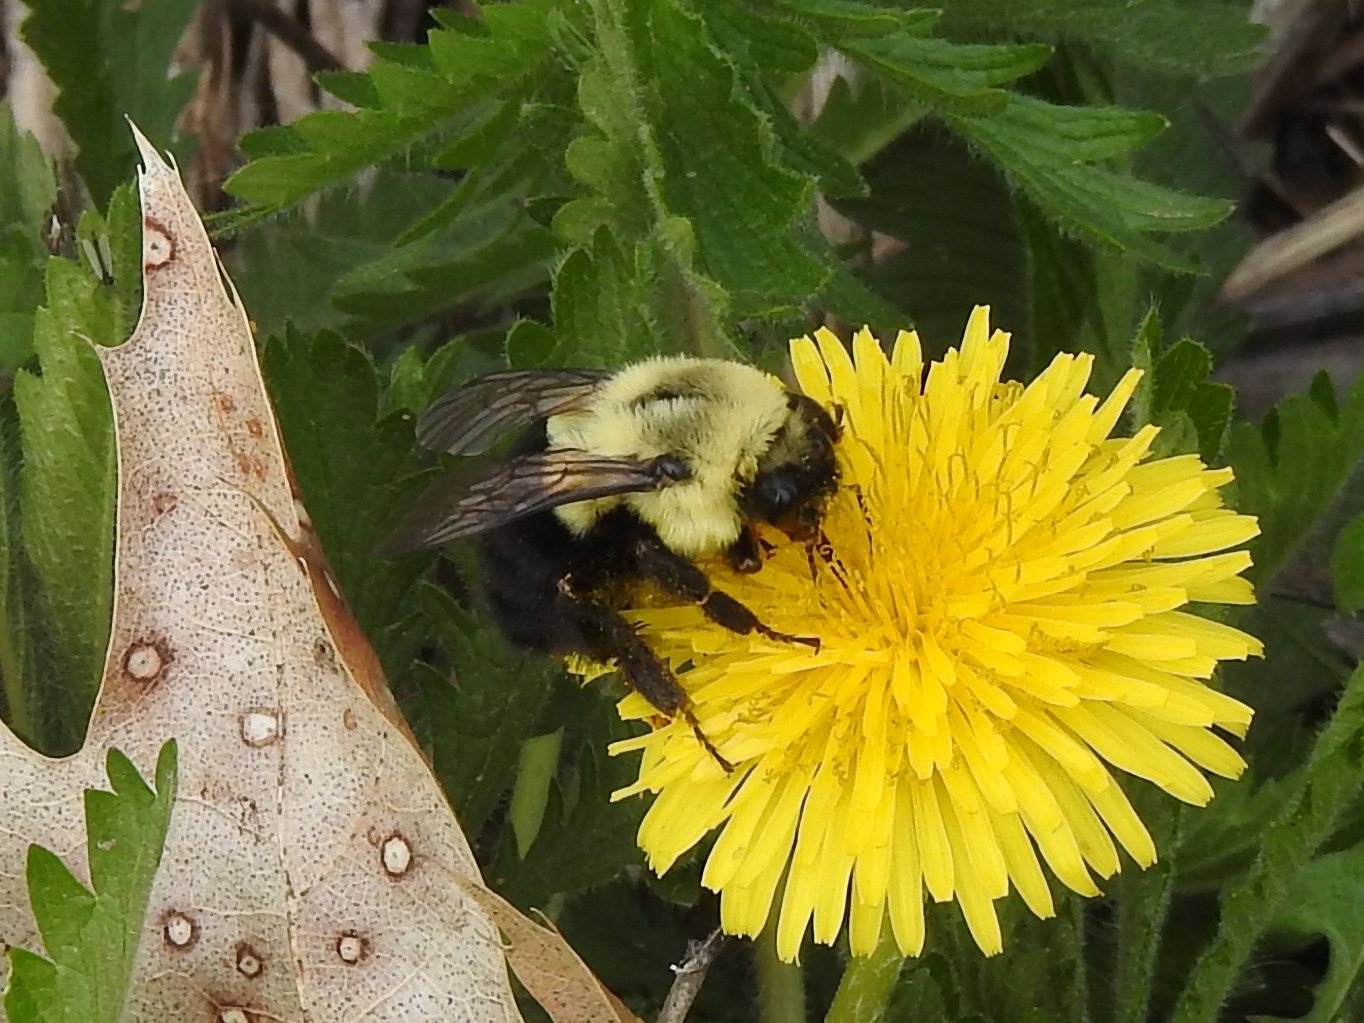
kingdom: Animalia
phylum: Arthropoda
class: Insecta
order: Hymenoptera
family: Apidae
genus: Bombus
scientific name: Bombus impatiens
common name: Common eastern bumble bee
